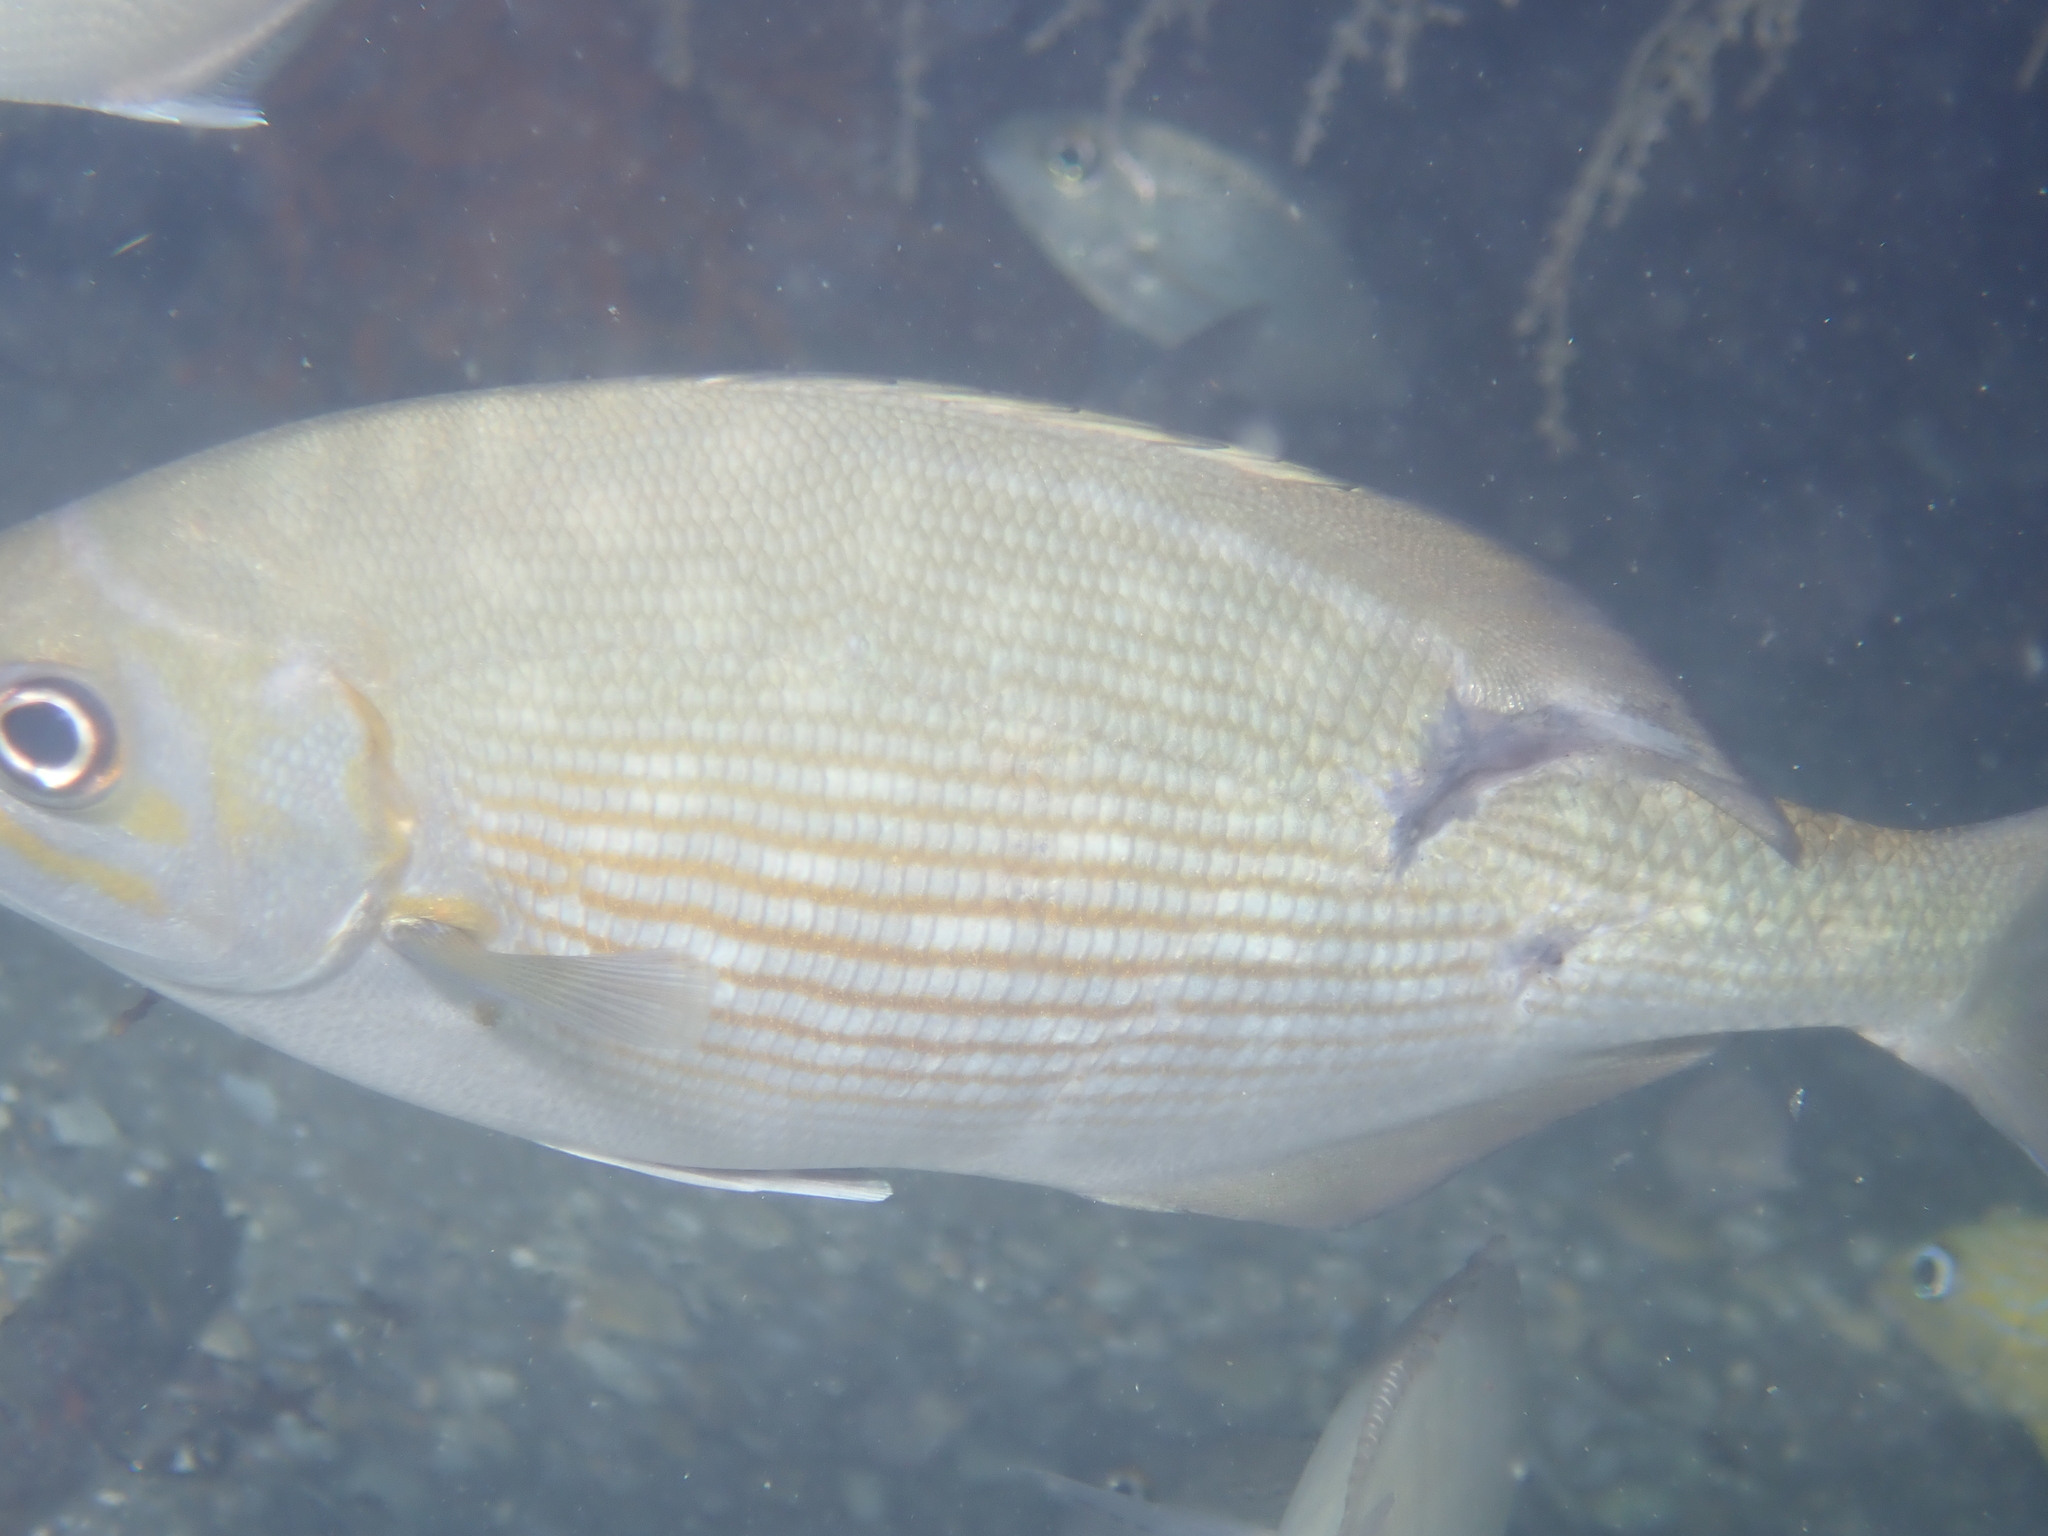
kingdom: Animalia
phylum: Chordata
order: Perciformes
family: Kyphosidae
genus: Kyphosus
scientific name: Kyphosus vaigiensis
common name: Brassy chub
